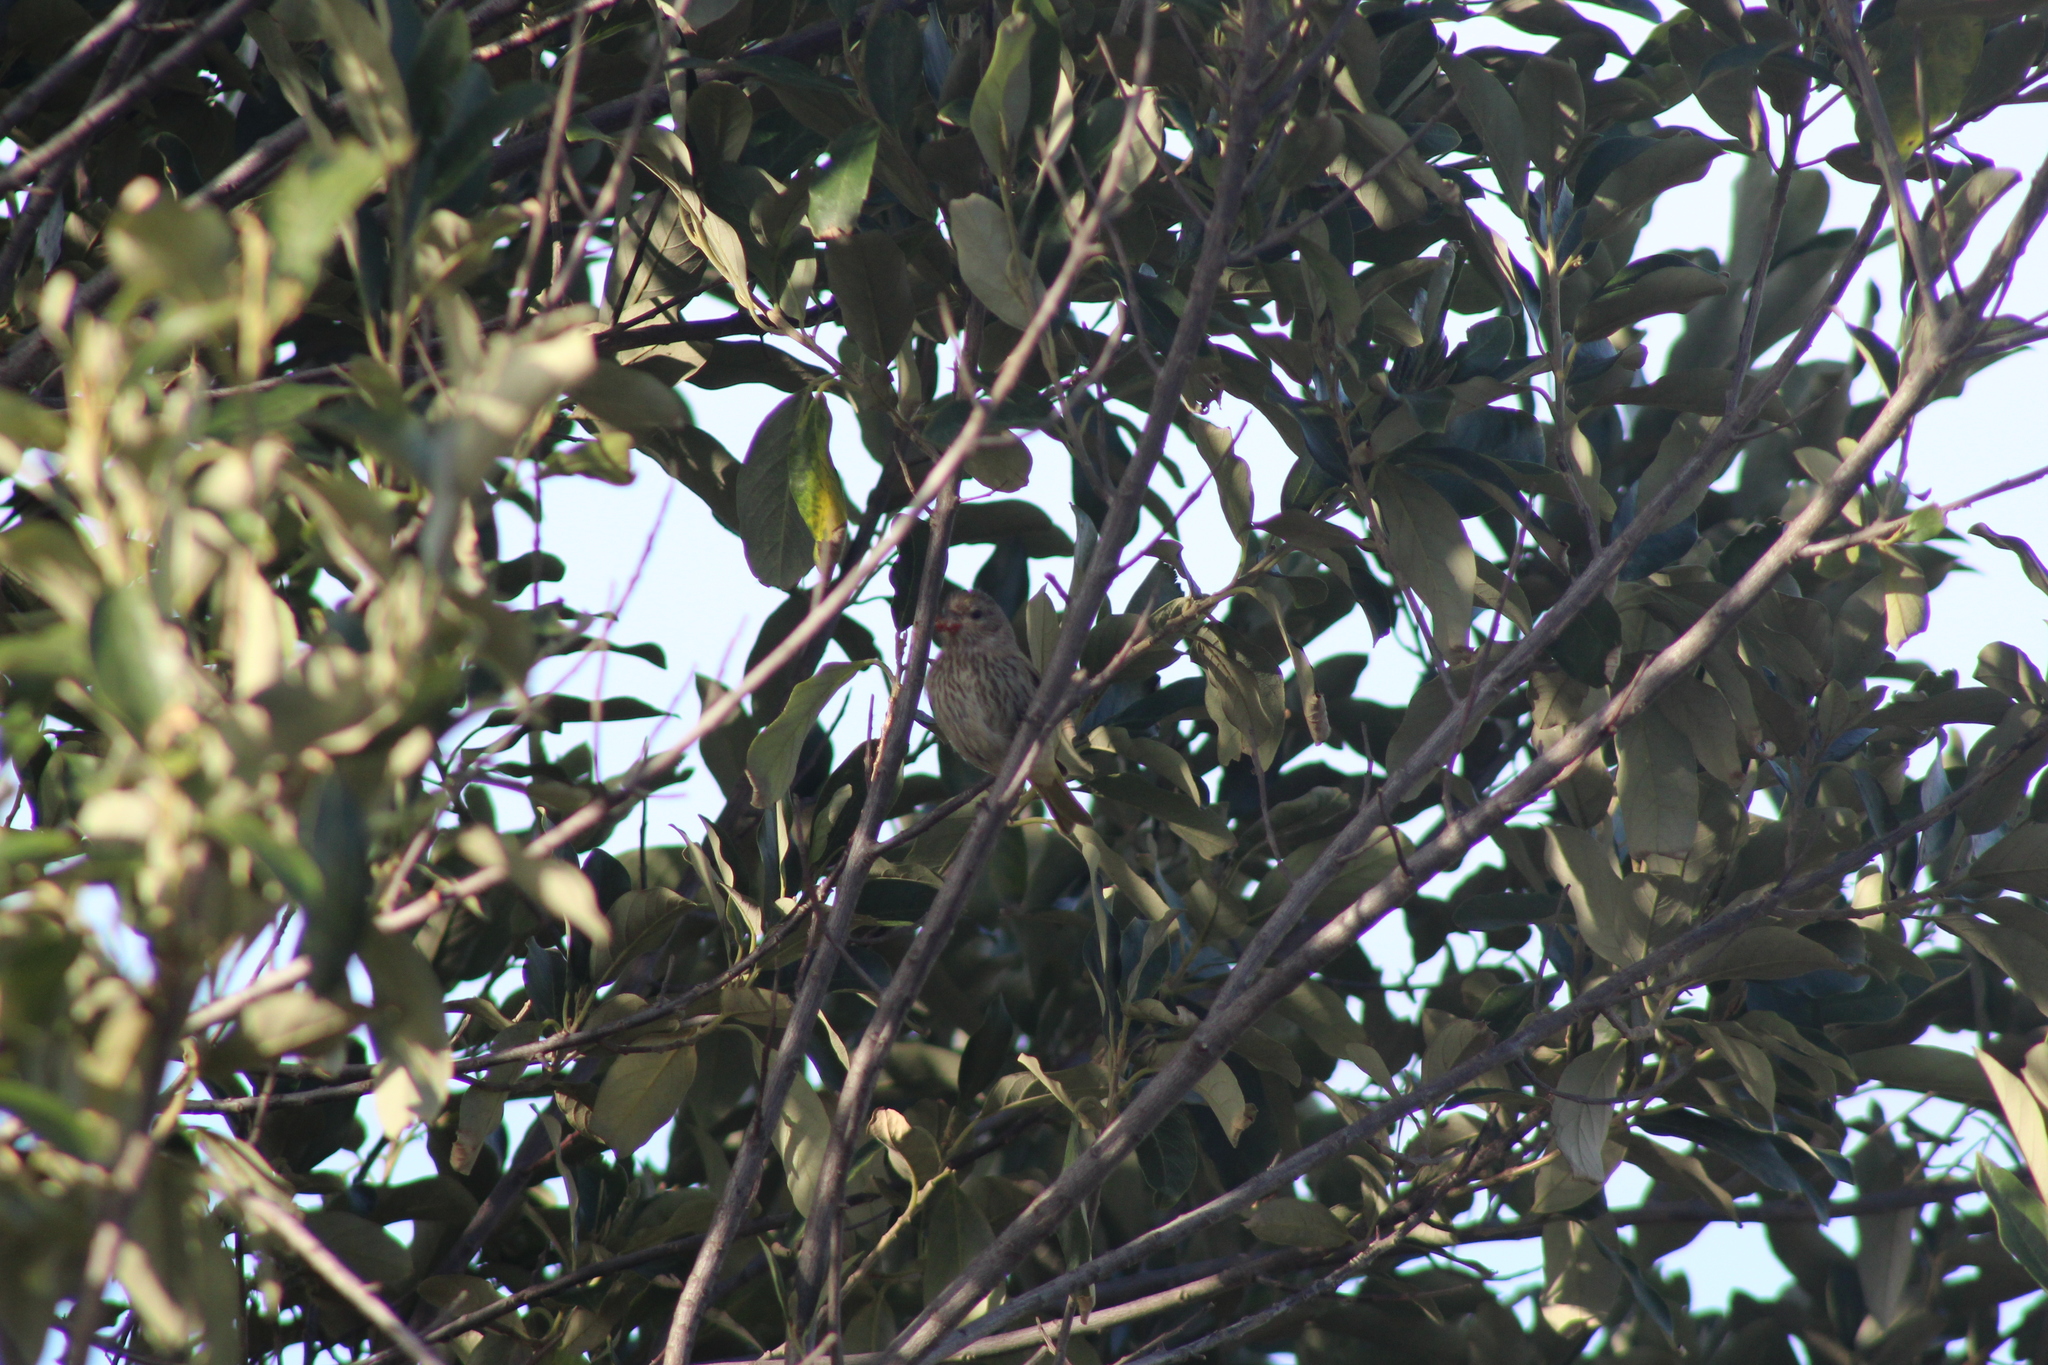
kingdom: Animalia
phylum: Chordata
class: Aves
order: Passeriformes
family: Fringillidae
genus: Serinus
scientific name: Serinus canicollis
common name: Cape canary
